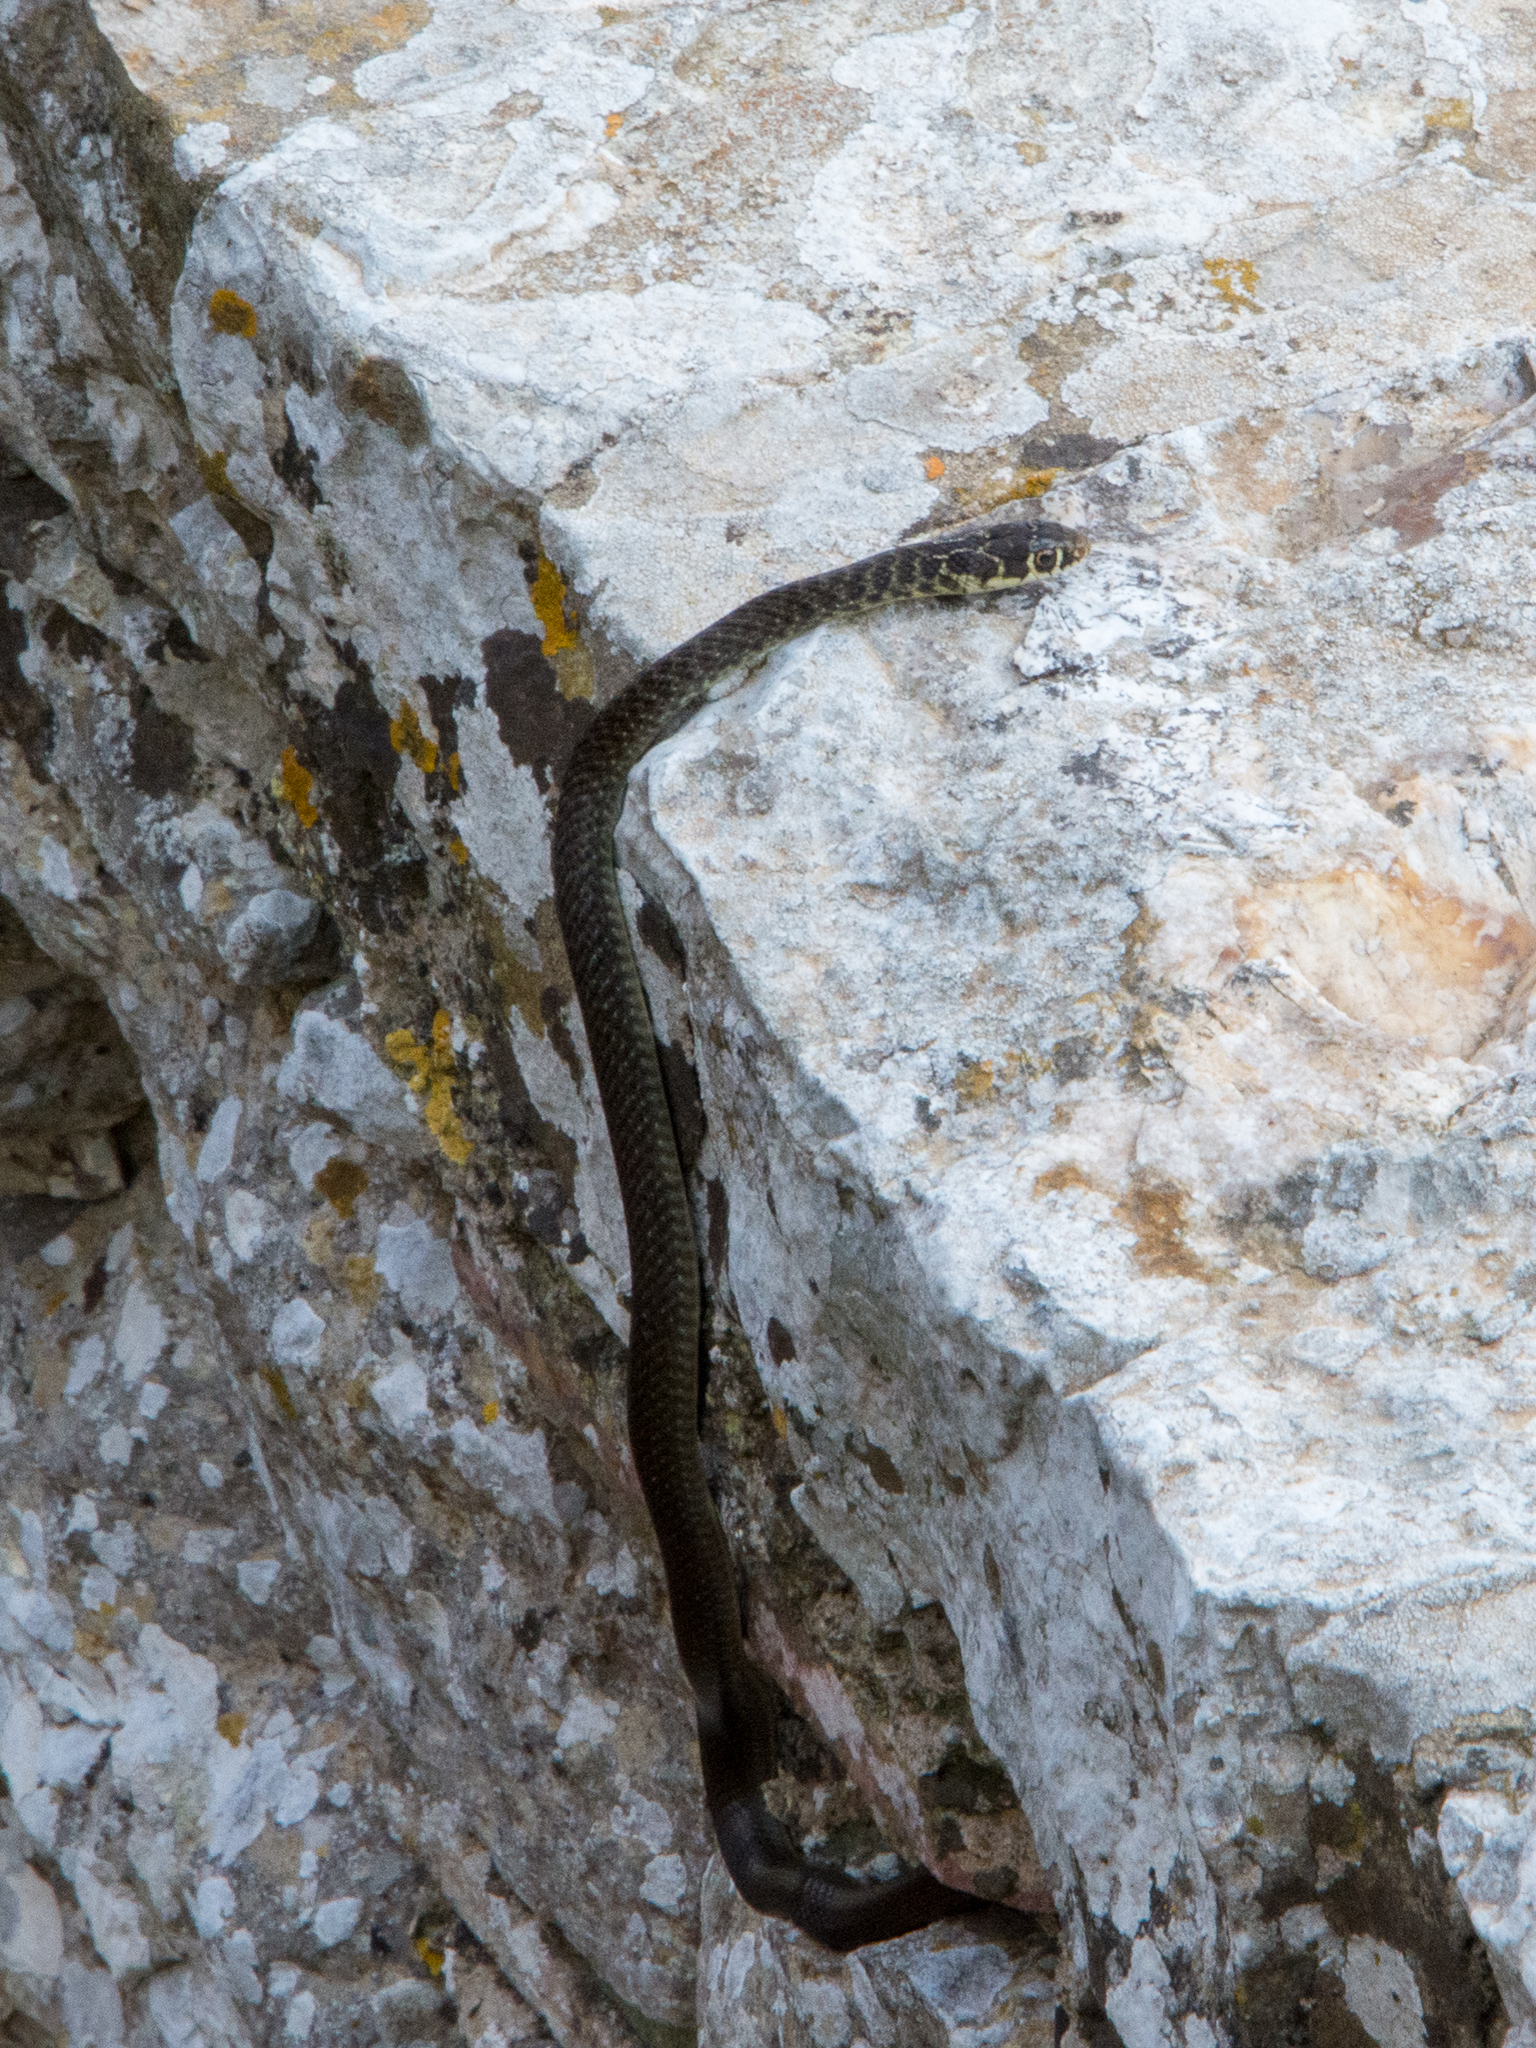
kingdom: Animalia
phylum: Chordata
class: Squamata
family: Colubridae
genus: Hierophis
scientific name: Hierophis viridiflavus
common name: Green whip snake
